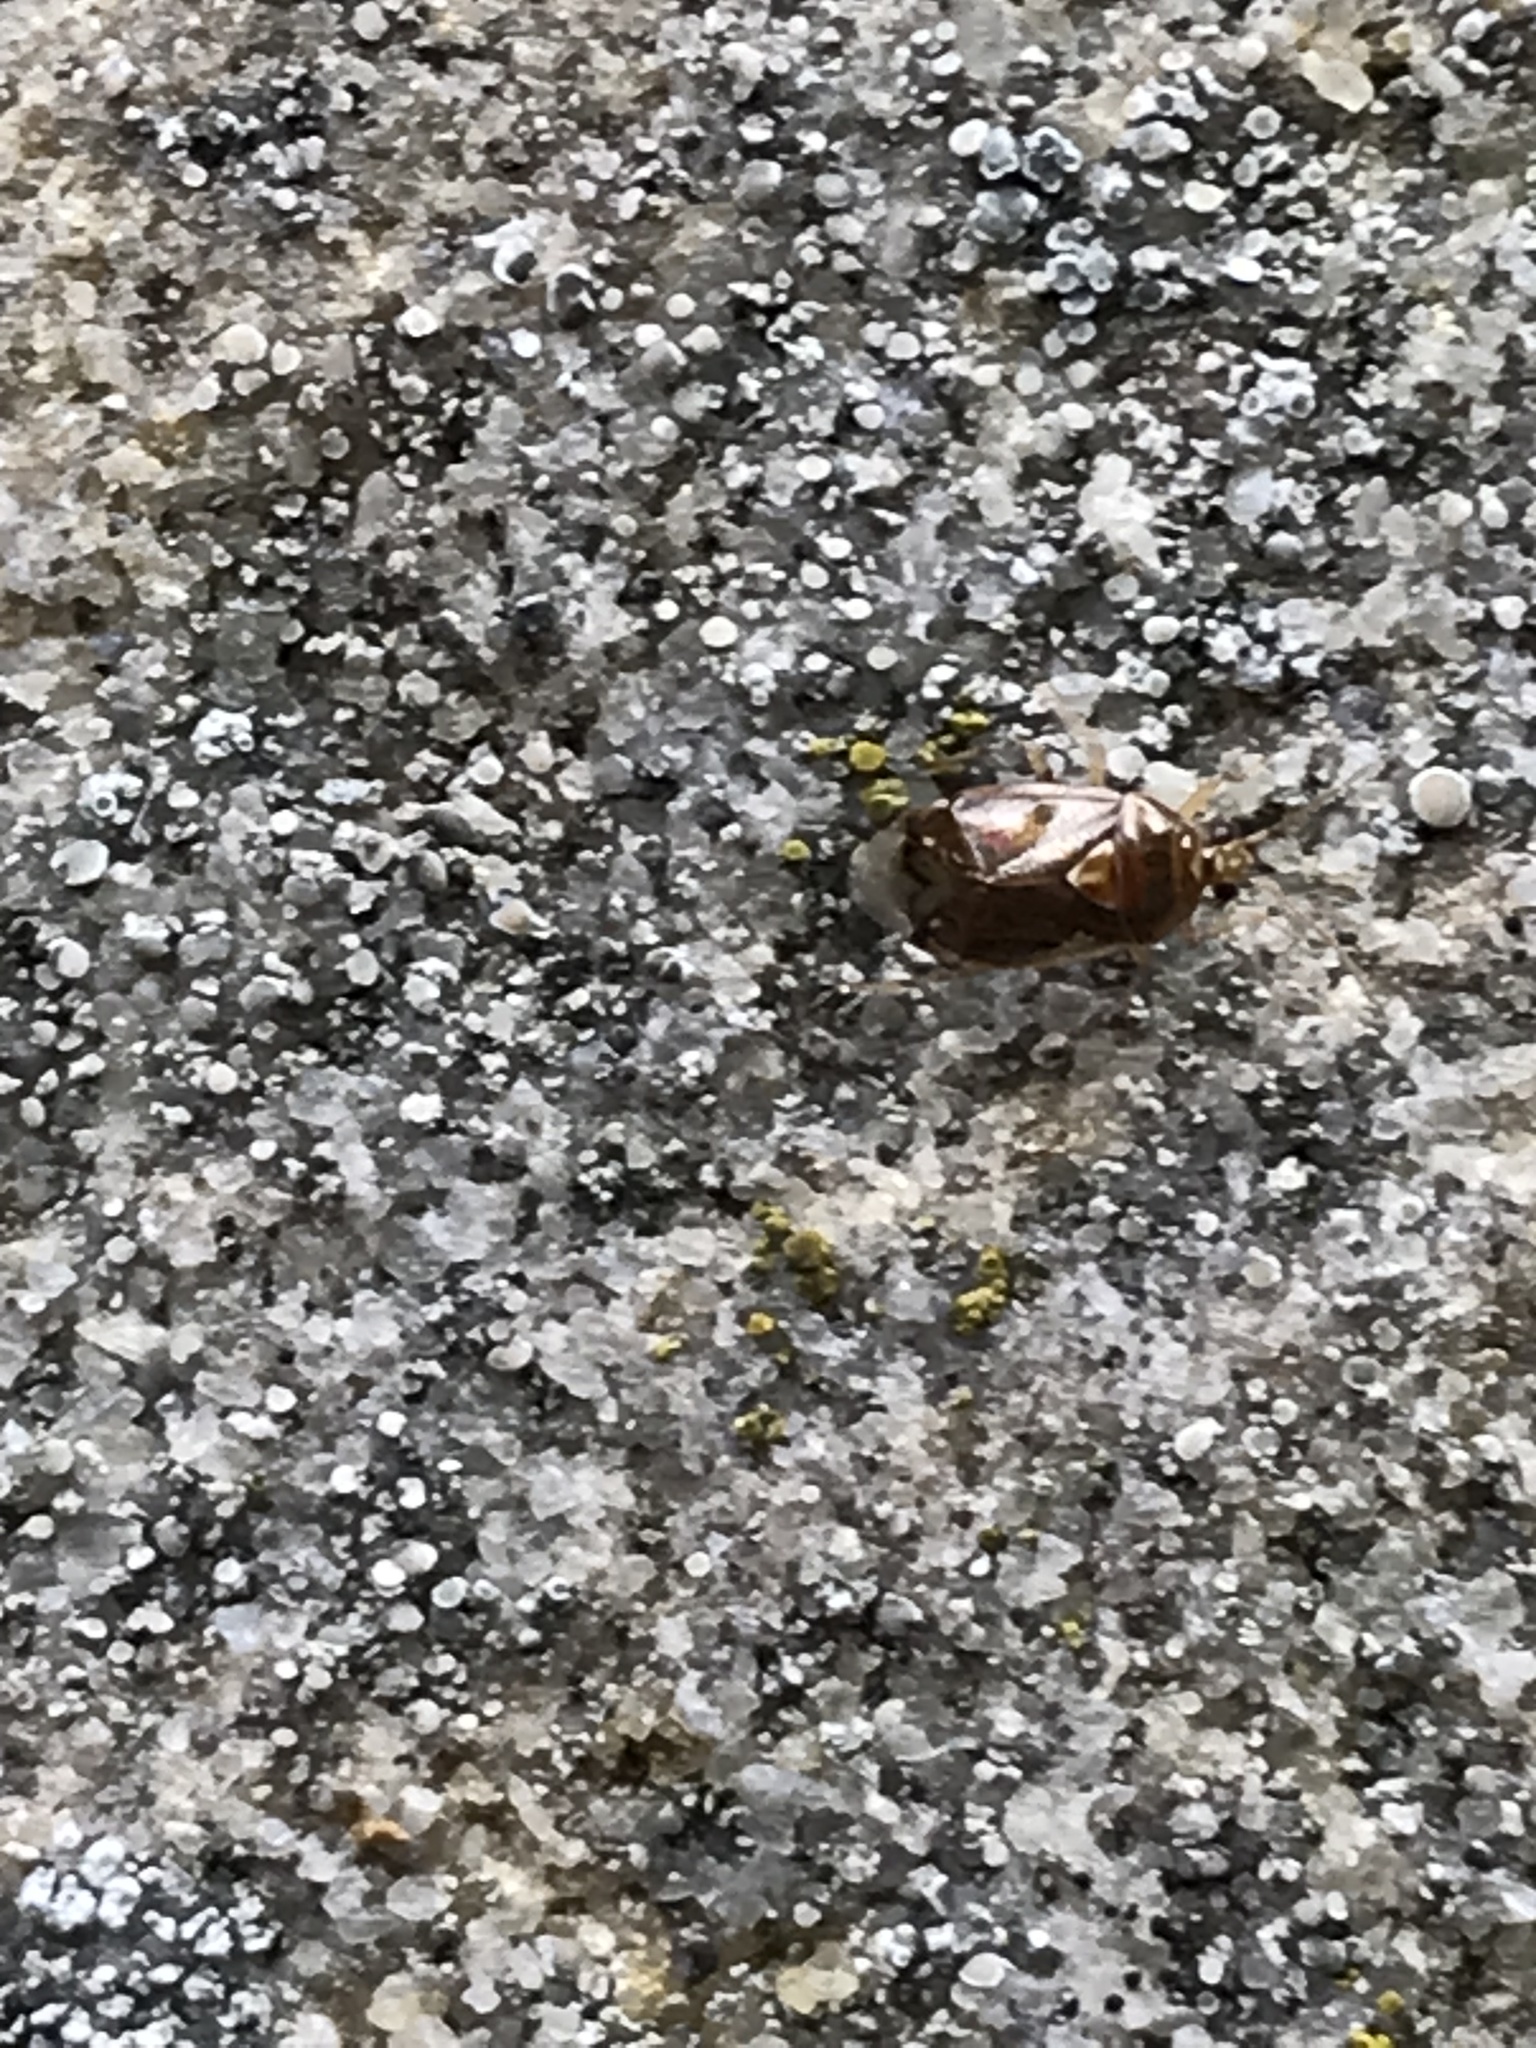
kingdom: Animalia
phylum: Arthropoda
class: Insecta
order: Hemiptera
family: Miridae
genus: Deraeocoris
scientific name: Deraeocoris lutescens
